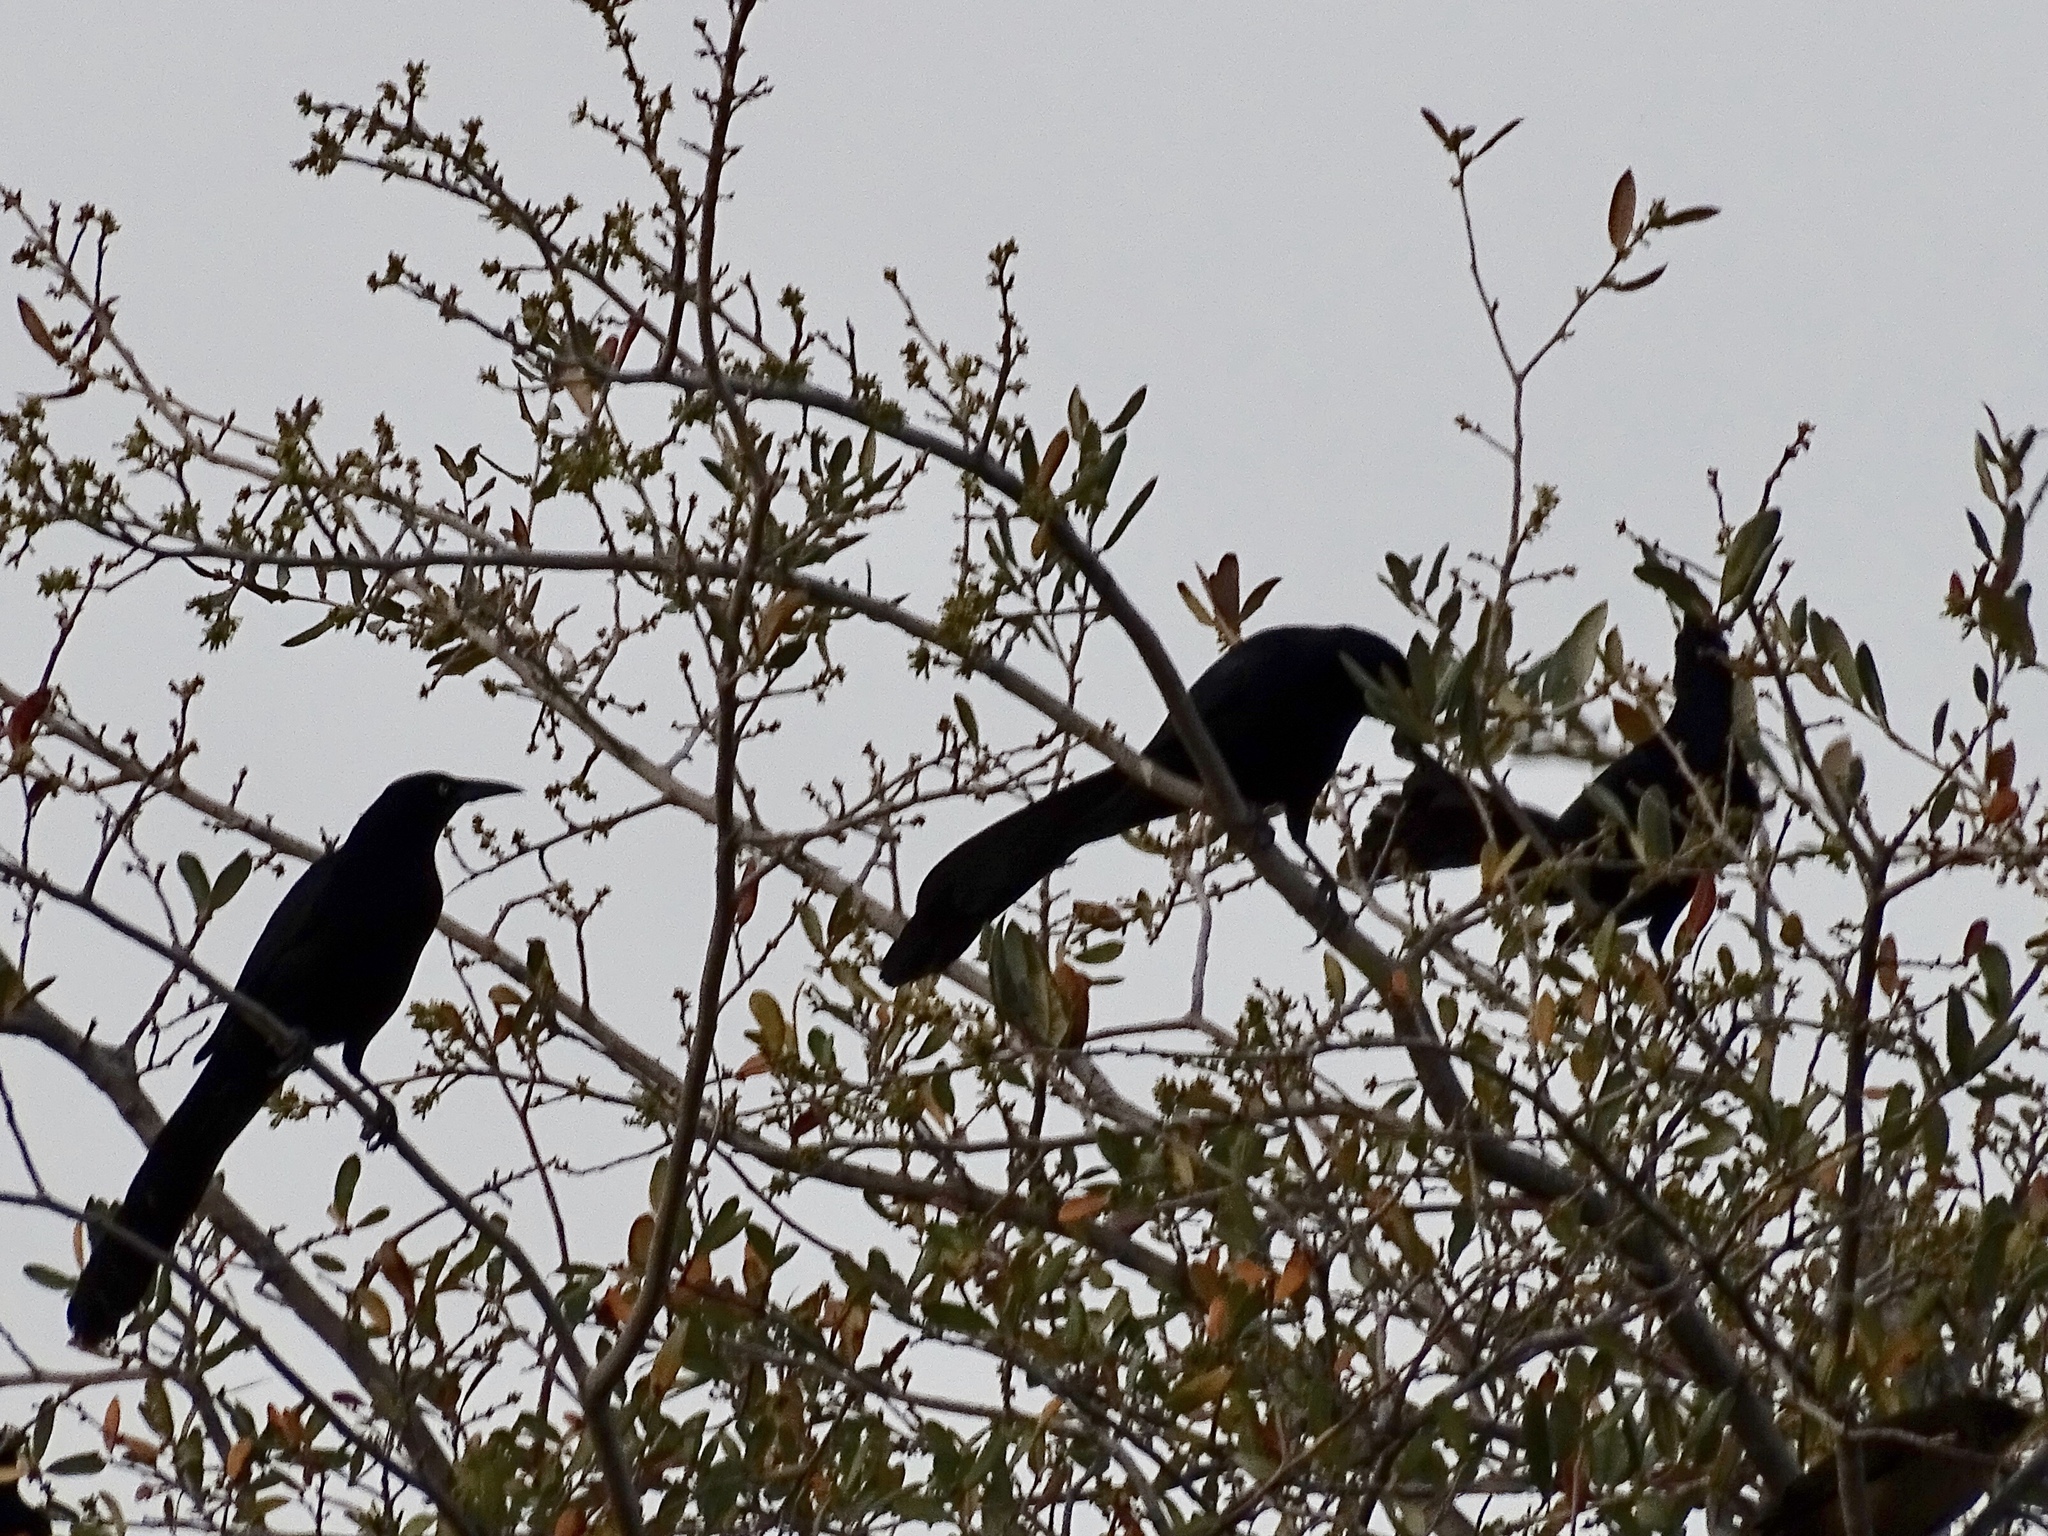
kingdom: Animalia
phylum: Chordata
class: Aves
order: Passeriformes
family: Icteridae
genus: Quiscalus
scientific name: Quiscalus mexicanus
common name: Great-tailed grackle
